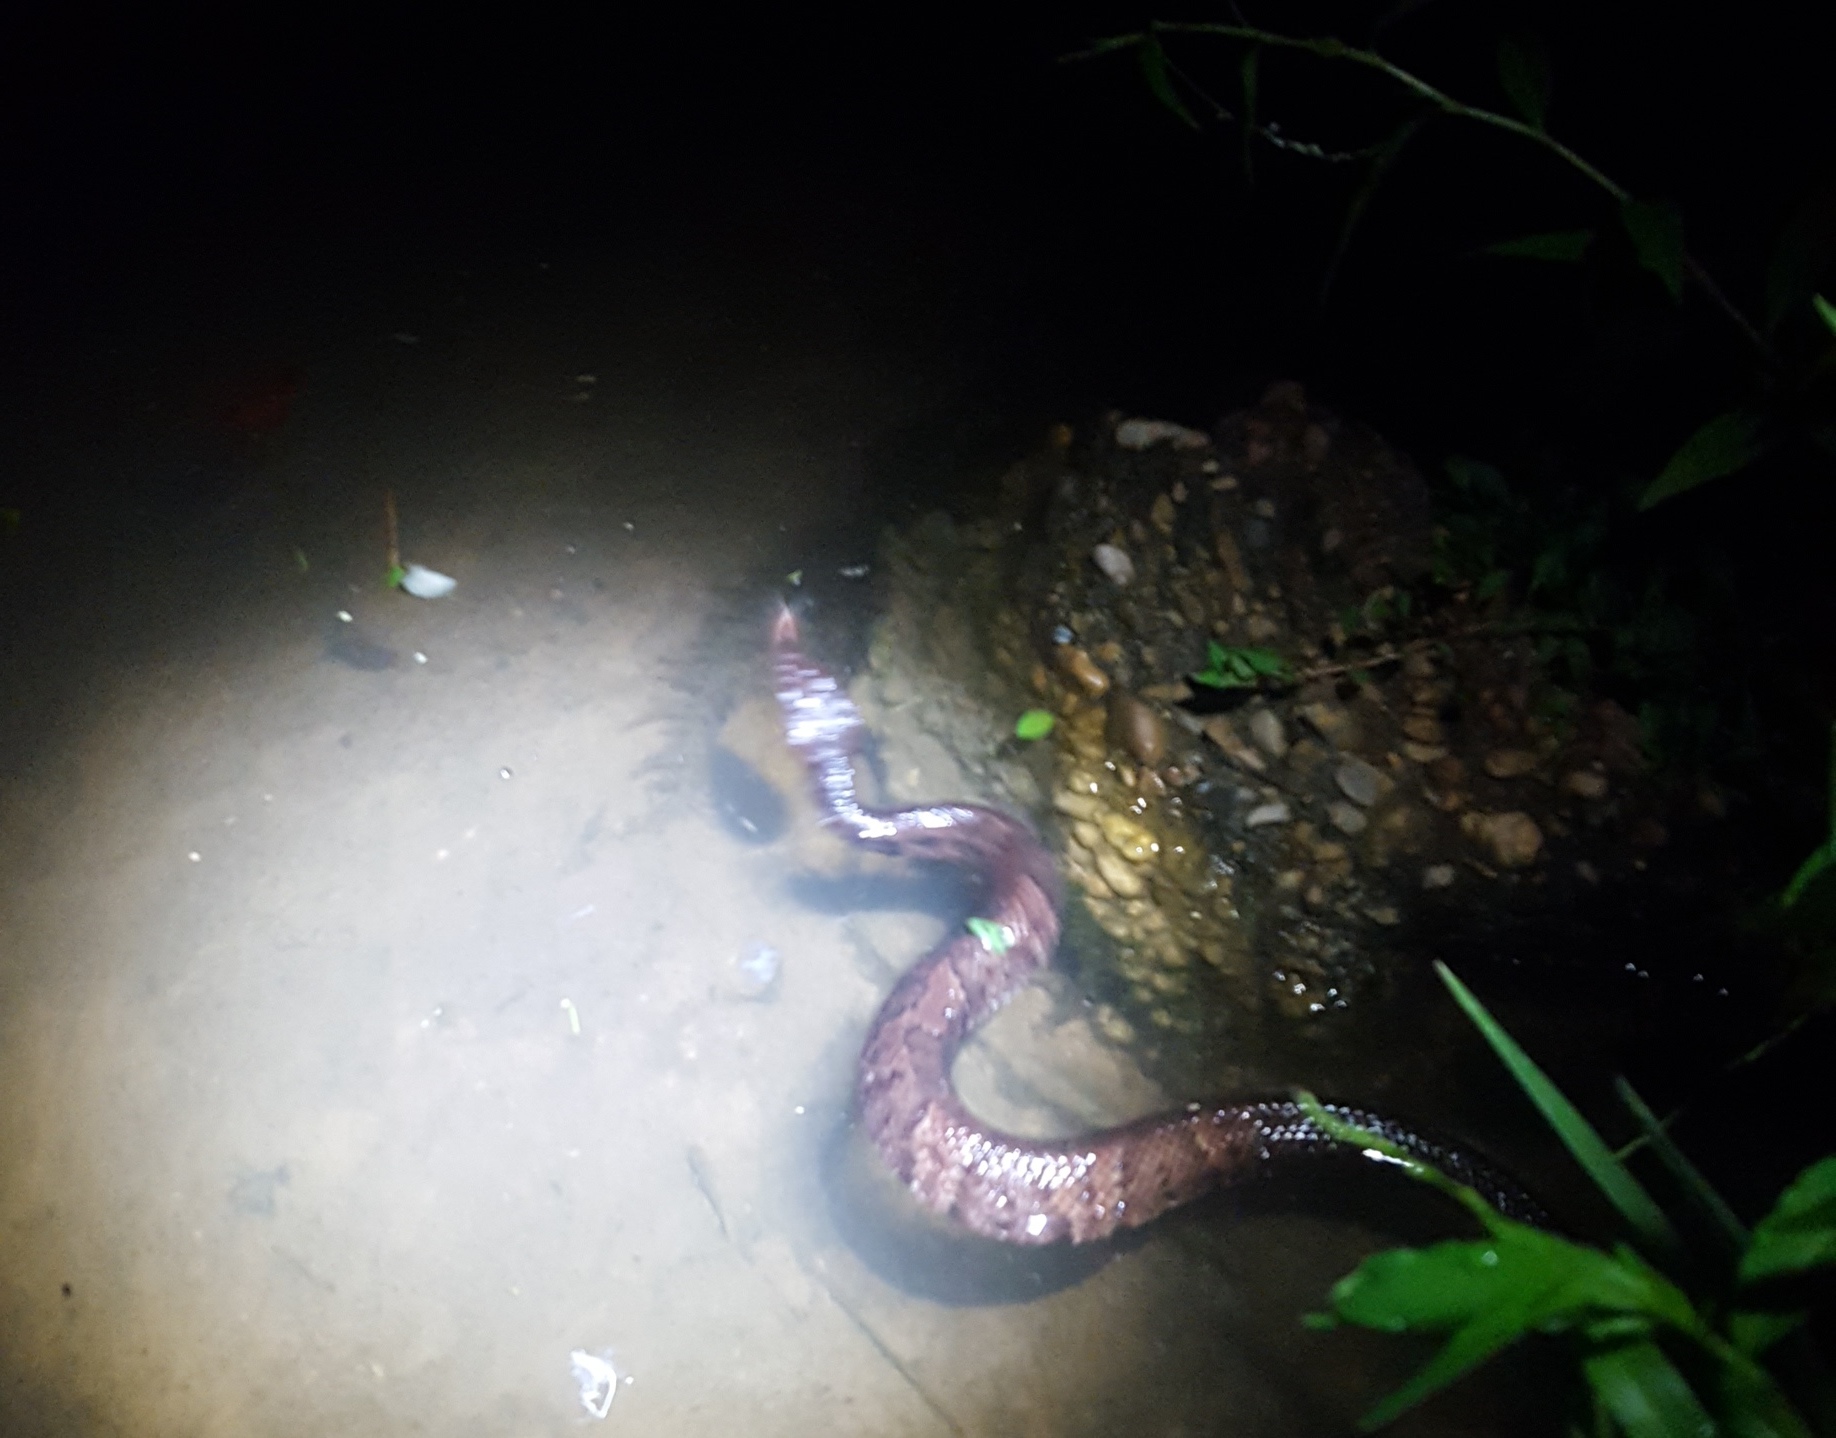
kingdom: Animalia
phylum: Chordata
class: Squamata
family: Viperidae
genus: Agkistrodon
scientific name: Agkistrodon piscivorus
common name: Cottonmouth
